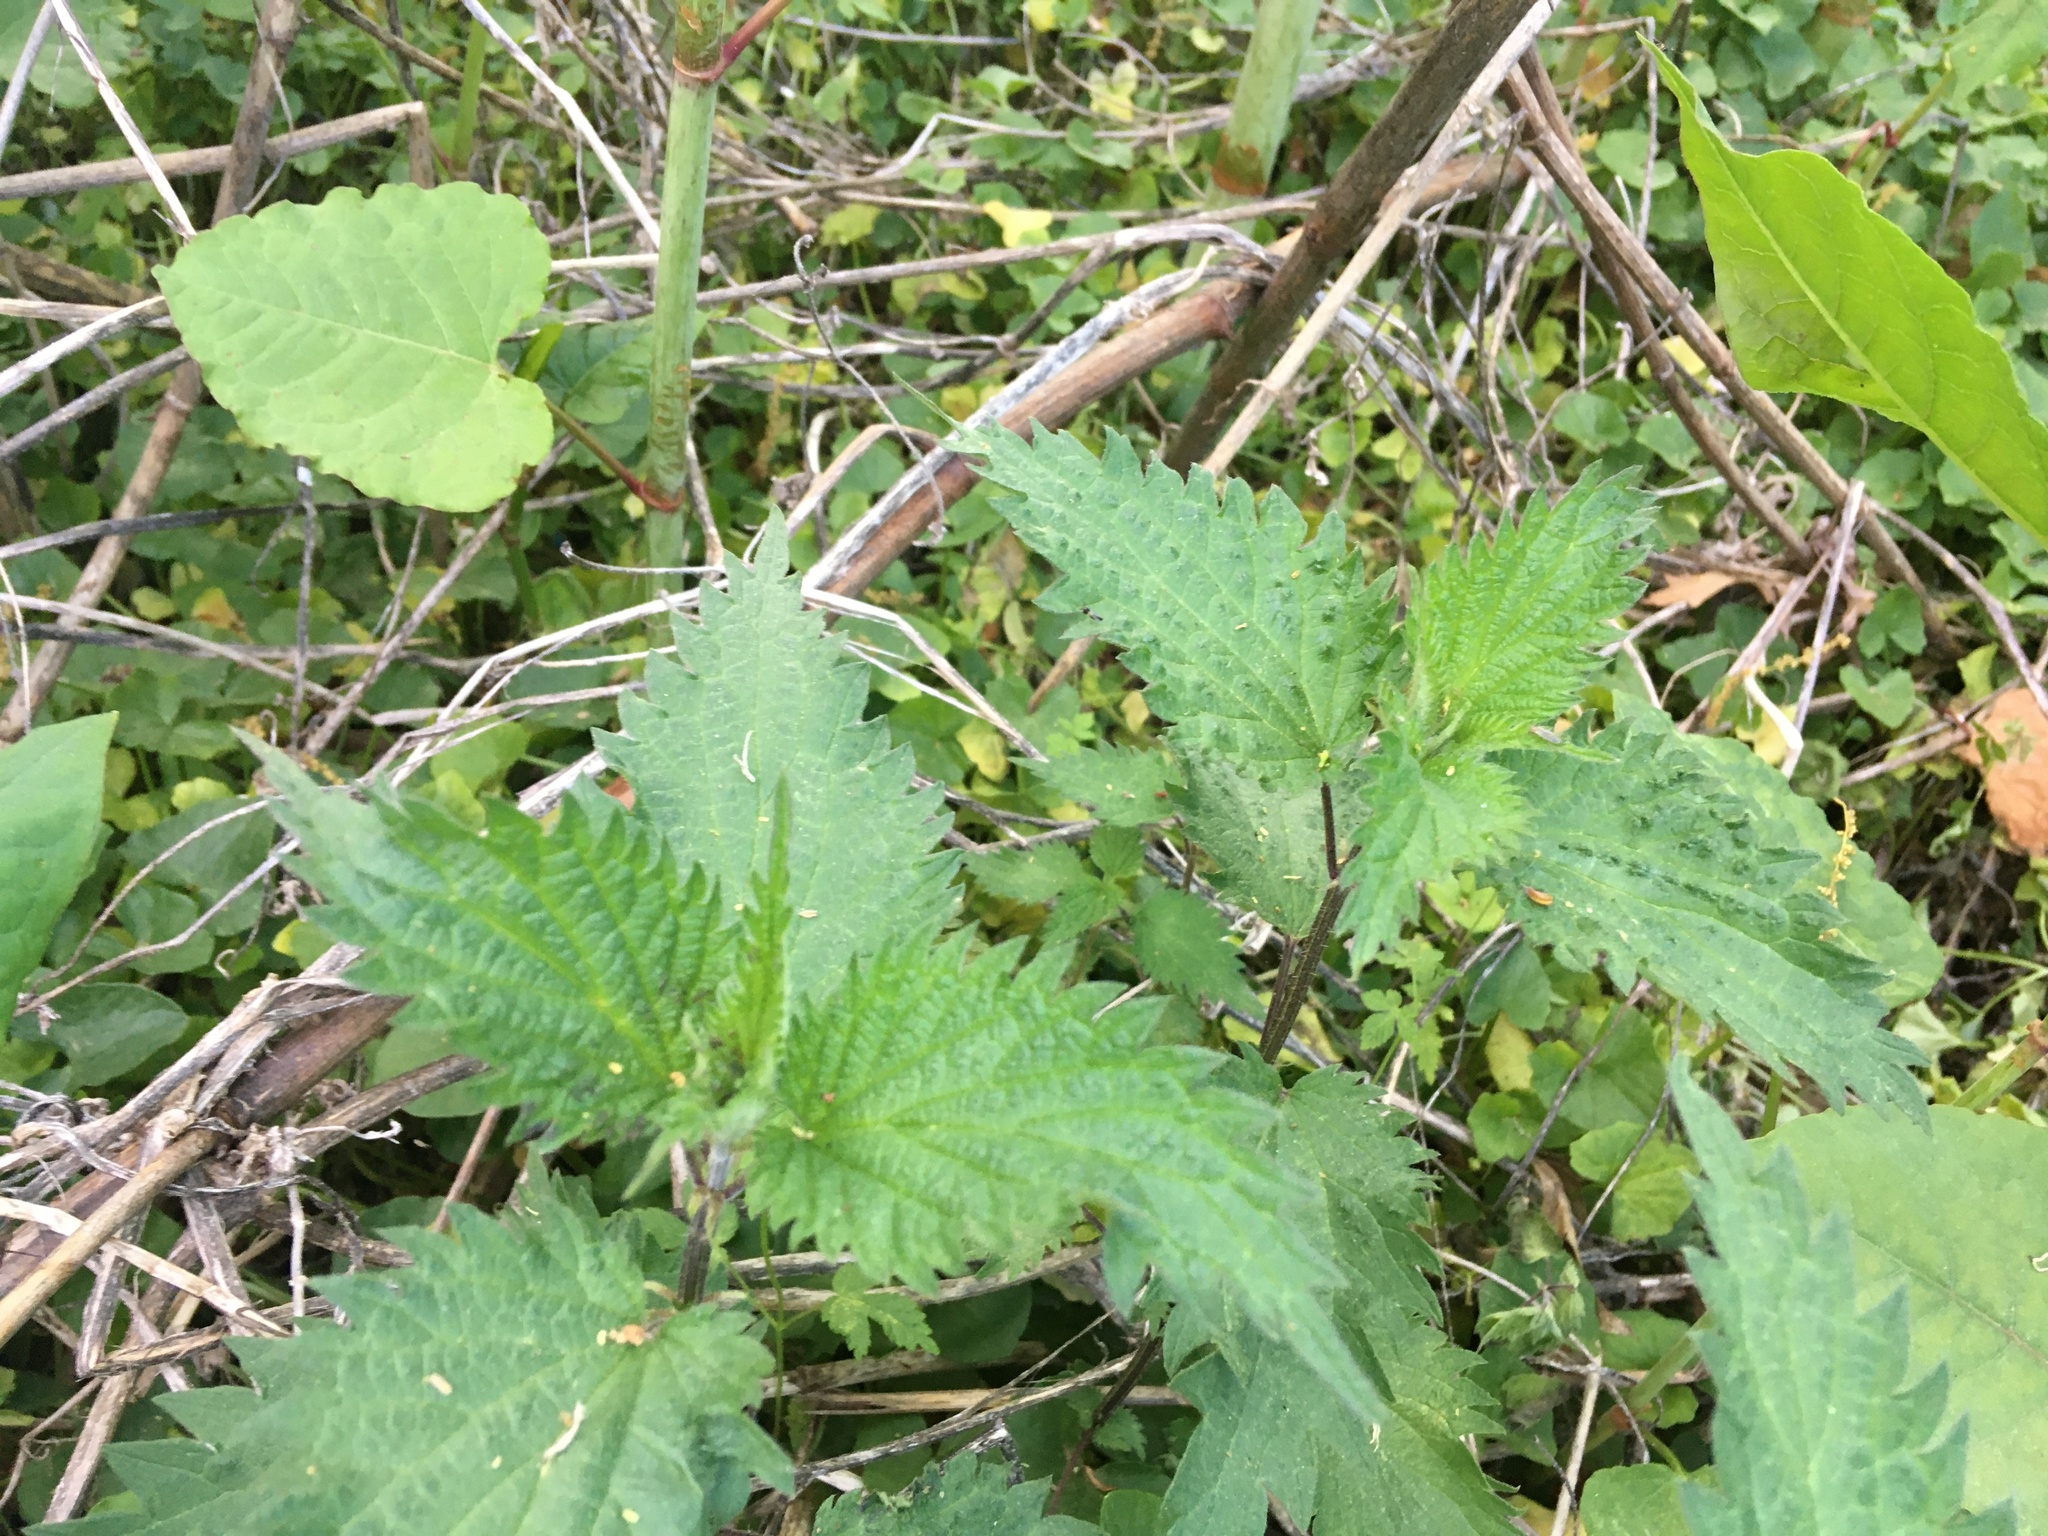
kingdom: Plantae
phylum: Tracheophyta
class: Magnoliopsida
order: Rosales
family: Urticaceae
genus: Urtica
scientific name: Urtica dioica
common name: Common nettle
